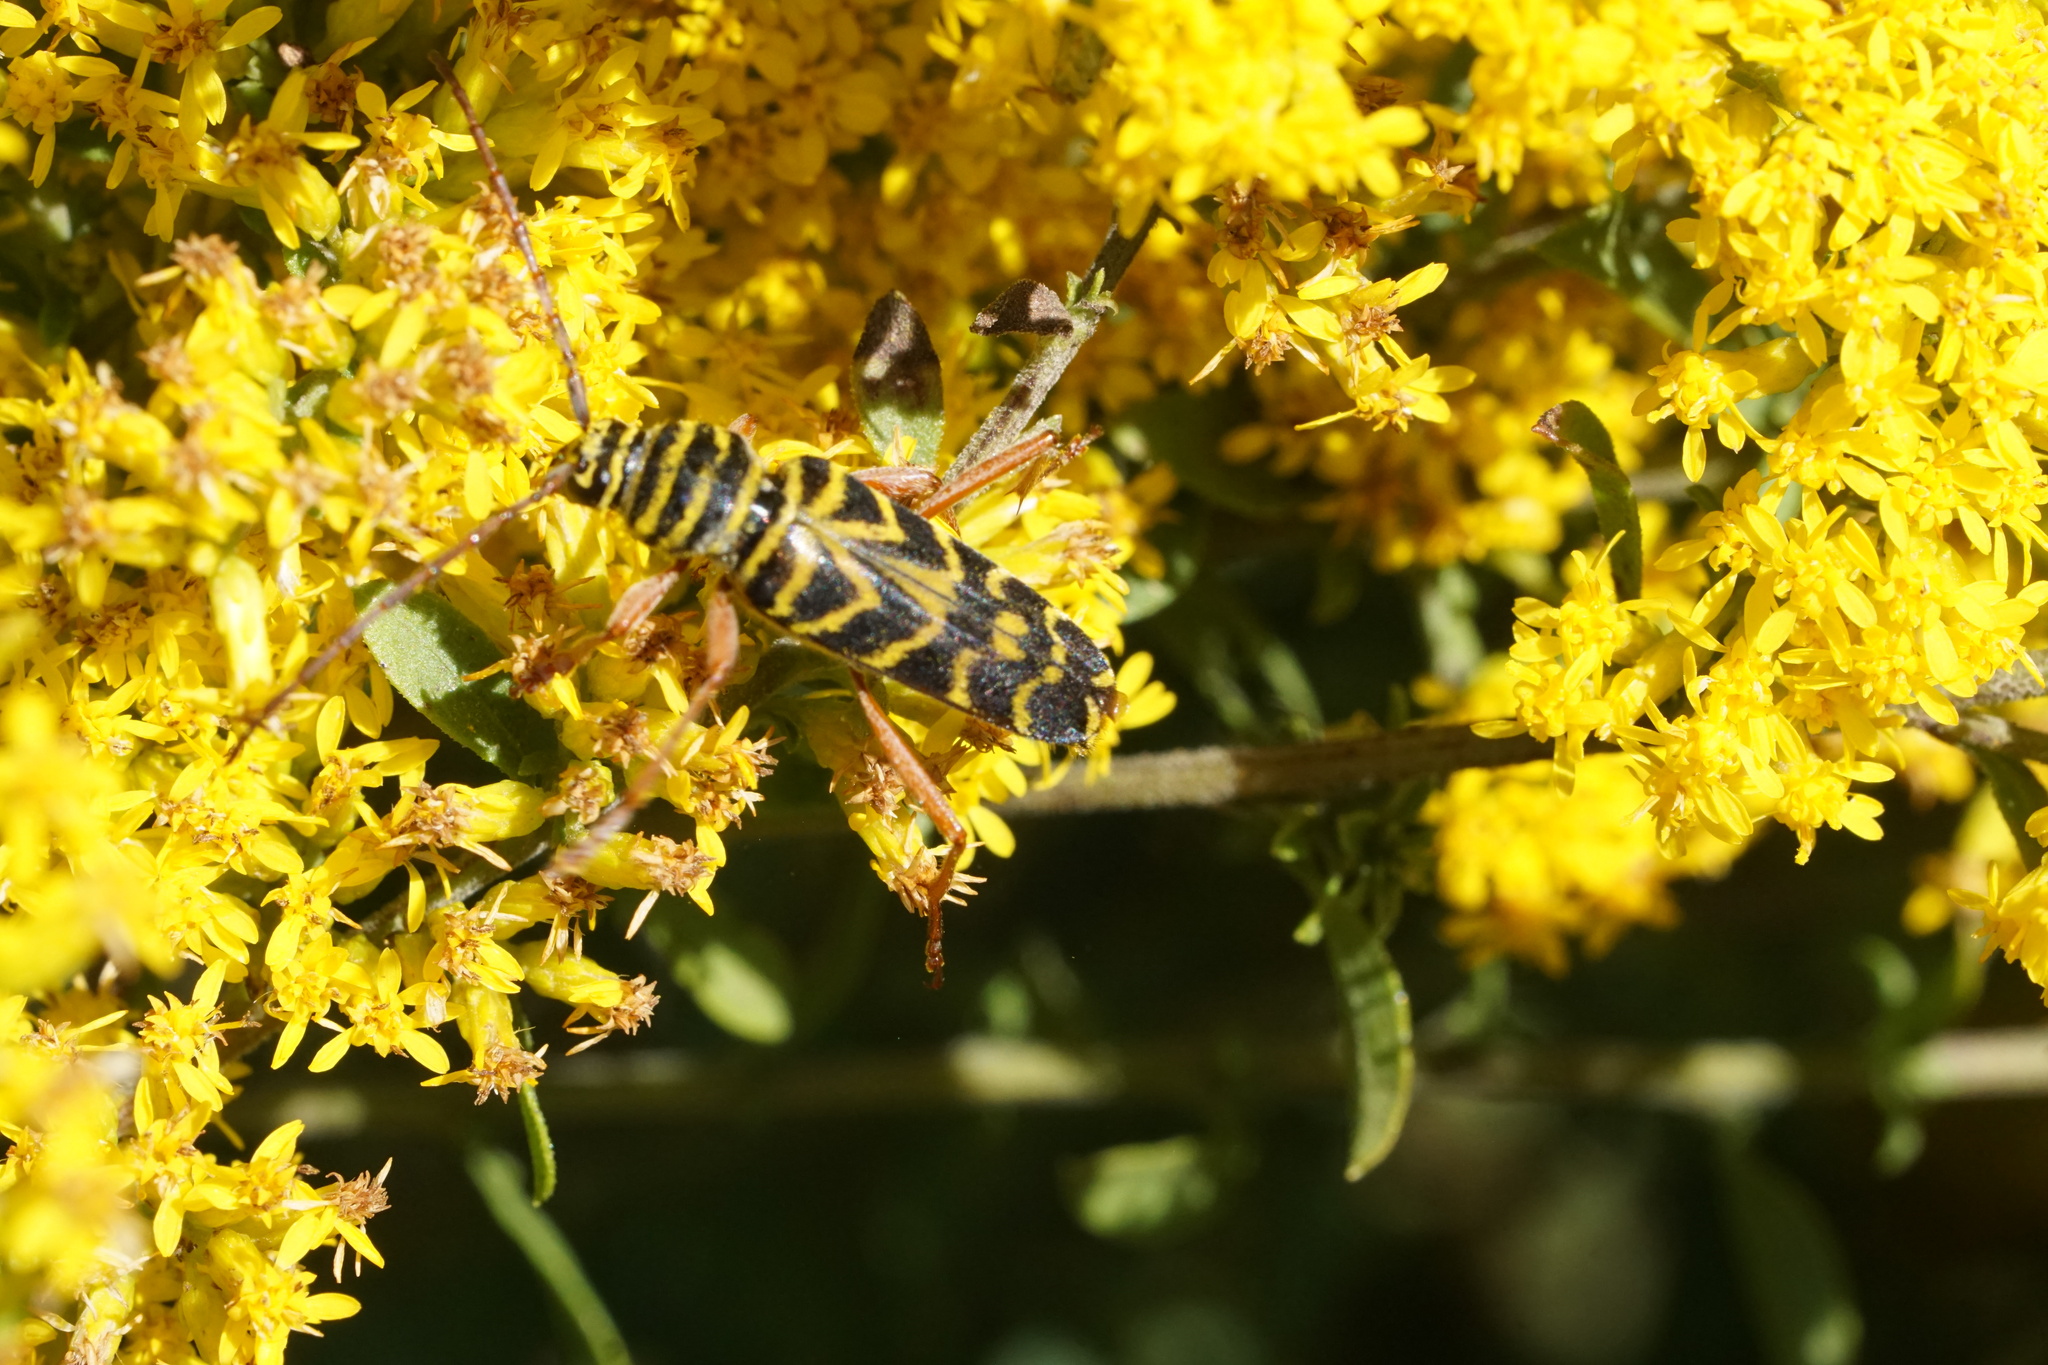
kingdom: Animalia
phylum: Arthropoda
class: Insecta
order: Coleoptera
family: Cerambycidae
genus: Megacyllene
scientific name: Megacyllene robiniae
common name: Locust borer
